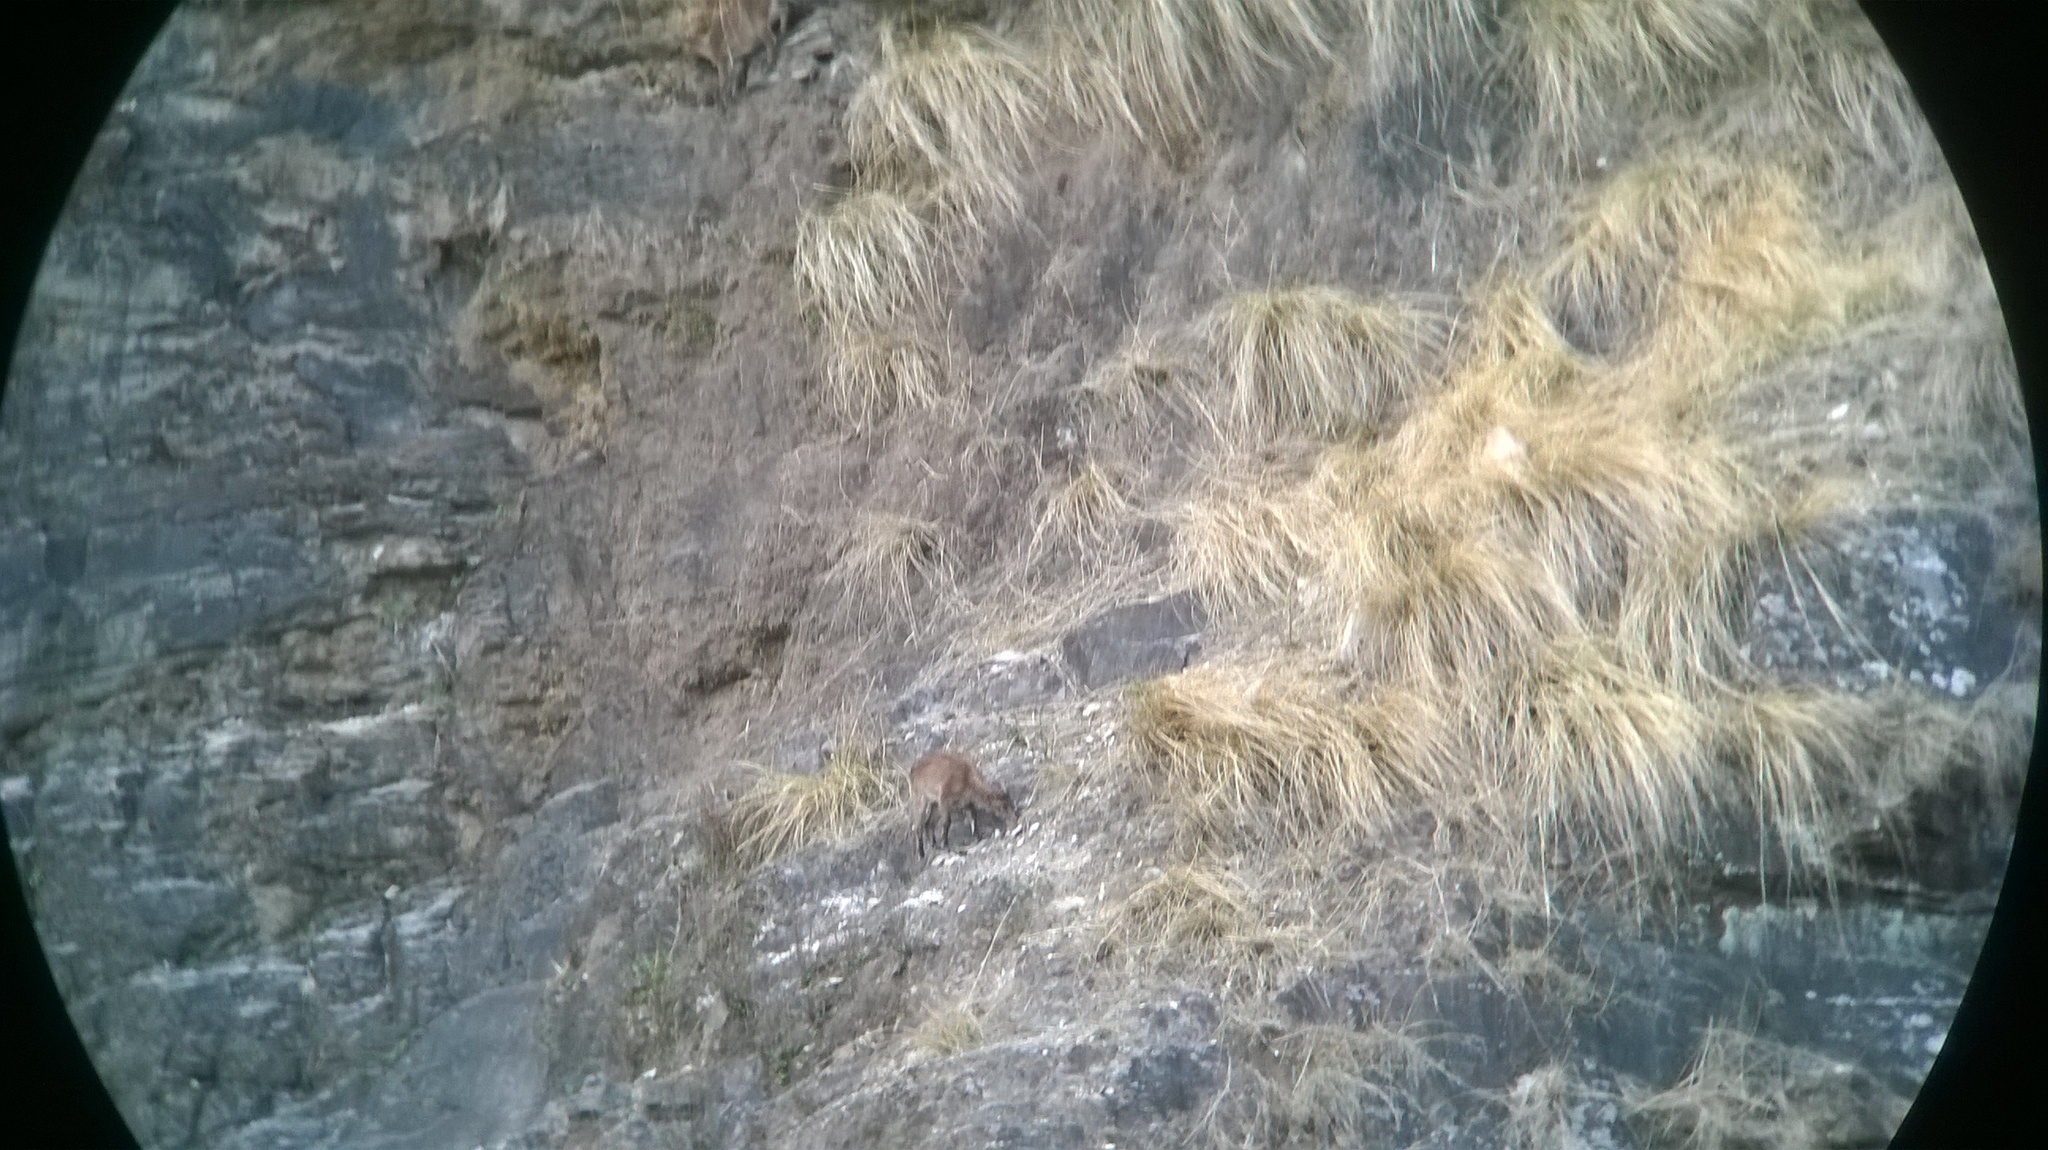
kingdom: Animalia
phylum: Chordata
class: Mammalia
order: Artiodactyla
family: Bovidae
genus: Hemitragus
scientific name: Hemitragus jemlahicus
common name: Himalayan tahr
